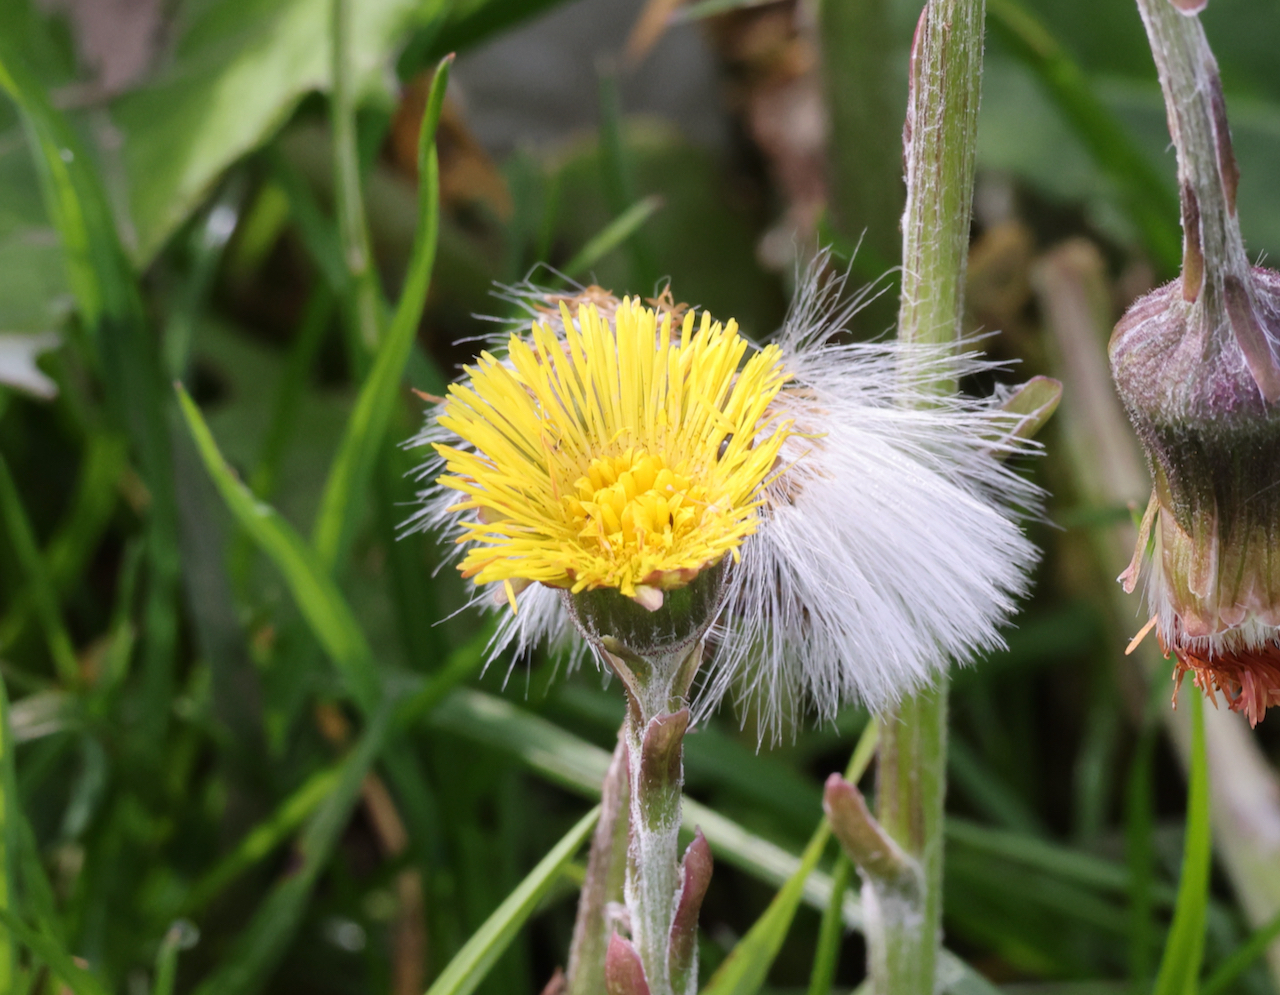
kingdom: Plantae
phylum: Tracheophyta
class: Magnoliopsida
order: Asterales
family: Asteraceae
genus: Tussilago
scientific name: Tussilago farfara
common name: Coltsfoot
